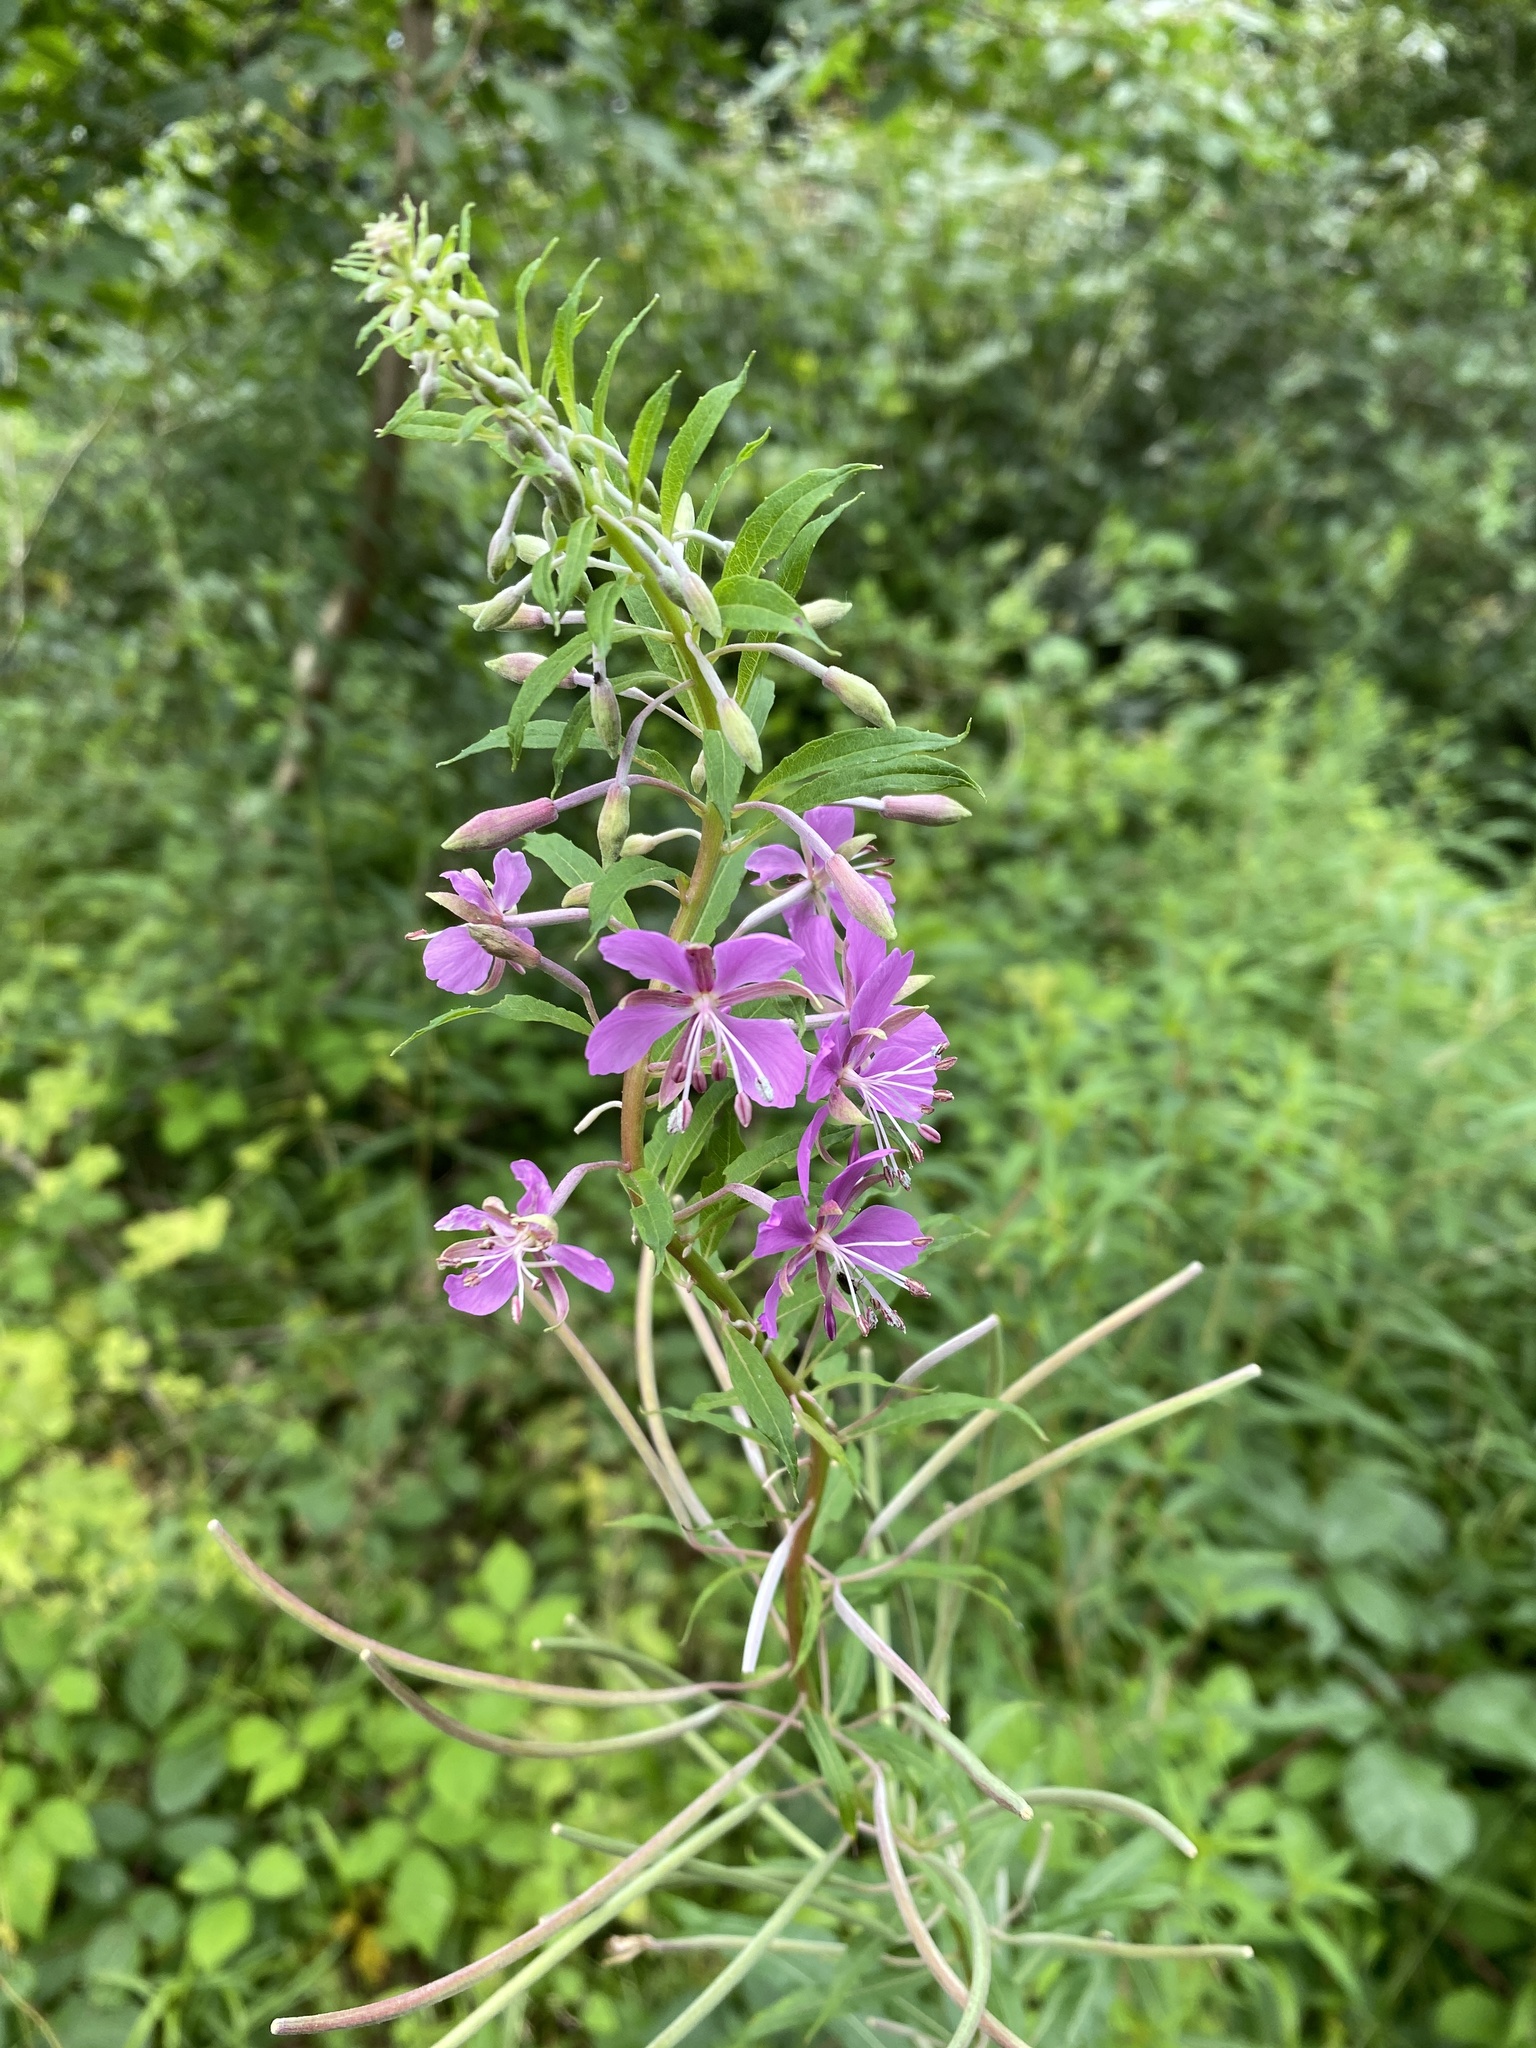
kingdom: Plantae
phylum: Tracheophyta
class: Magnoliopsida
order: Myrtales
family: Onagraceae
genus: Chamaenerion
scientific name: Chamaenerion angustifolium
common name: Fireweed
